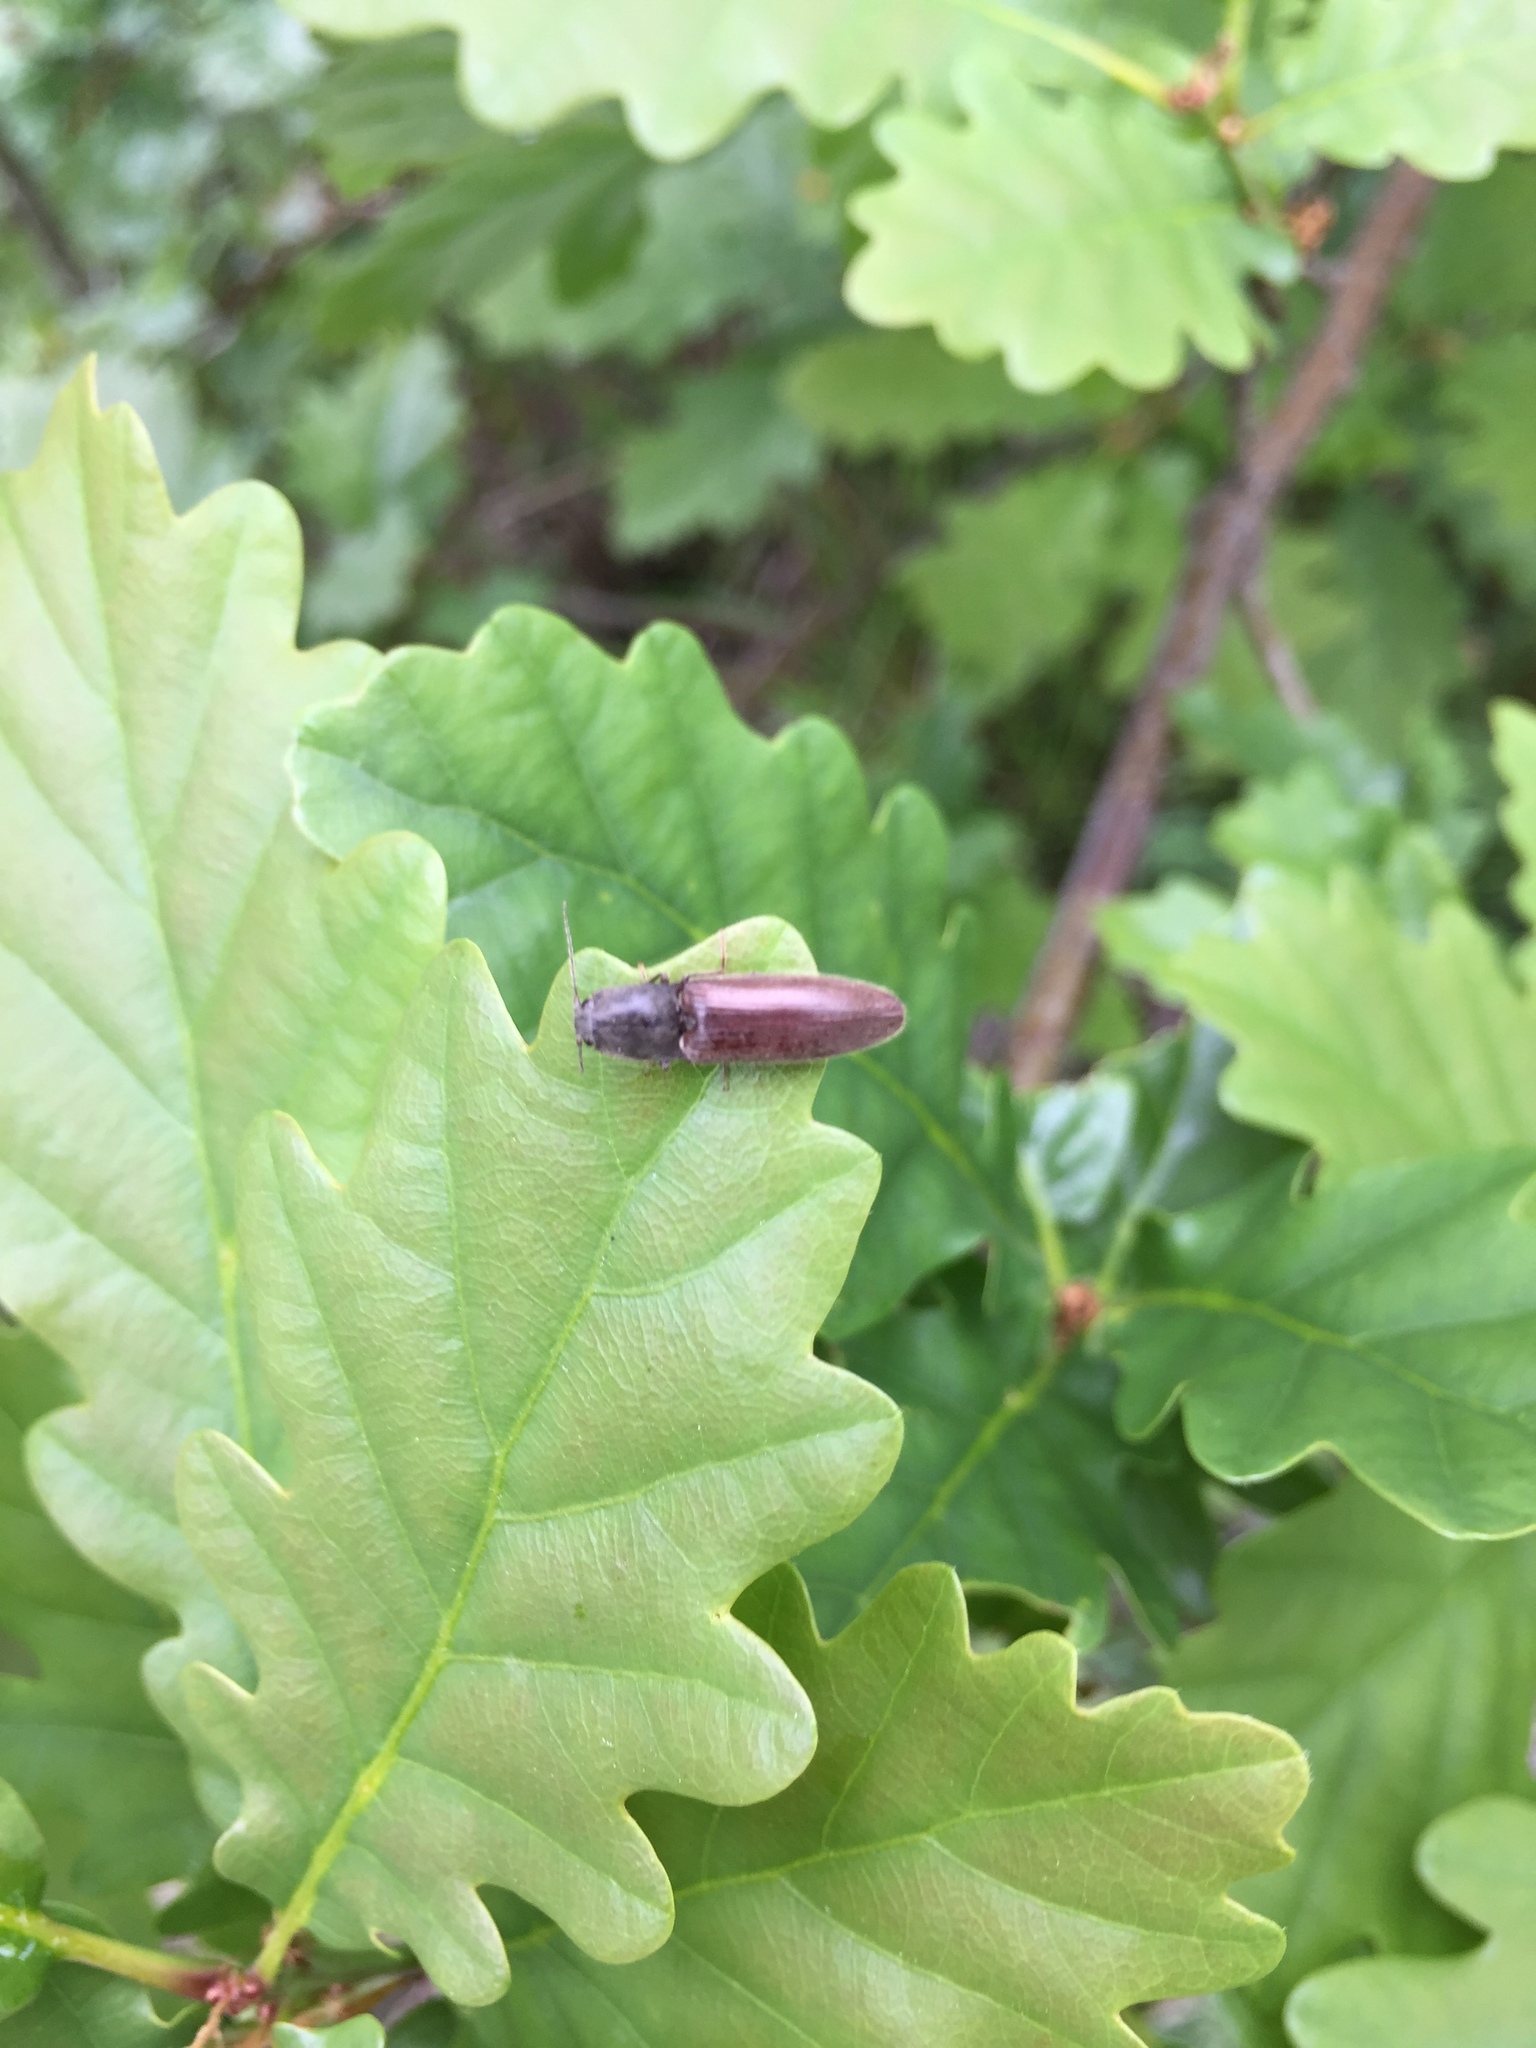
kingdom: Animalia
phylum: Arthropoda
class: Insecta
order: Coleoptera
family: Elateridae
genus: Athous
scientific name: Athous haemorrhoidalis
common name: Red-brown click beetle
